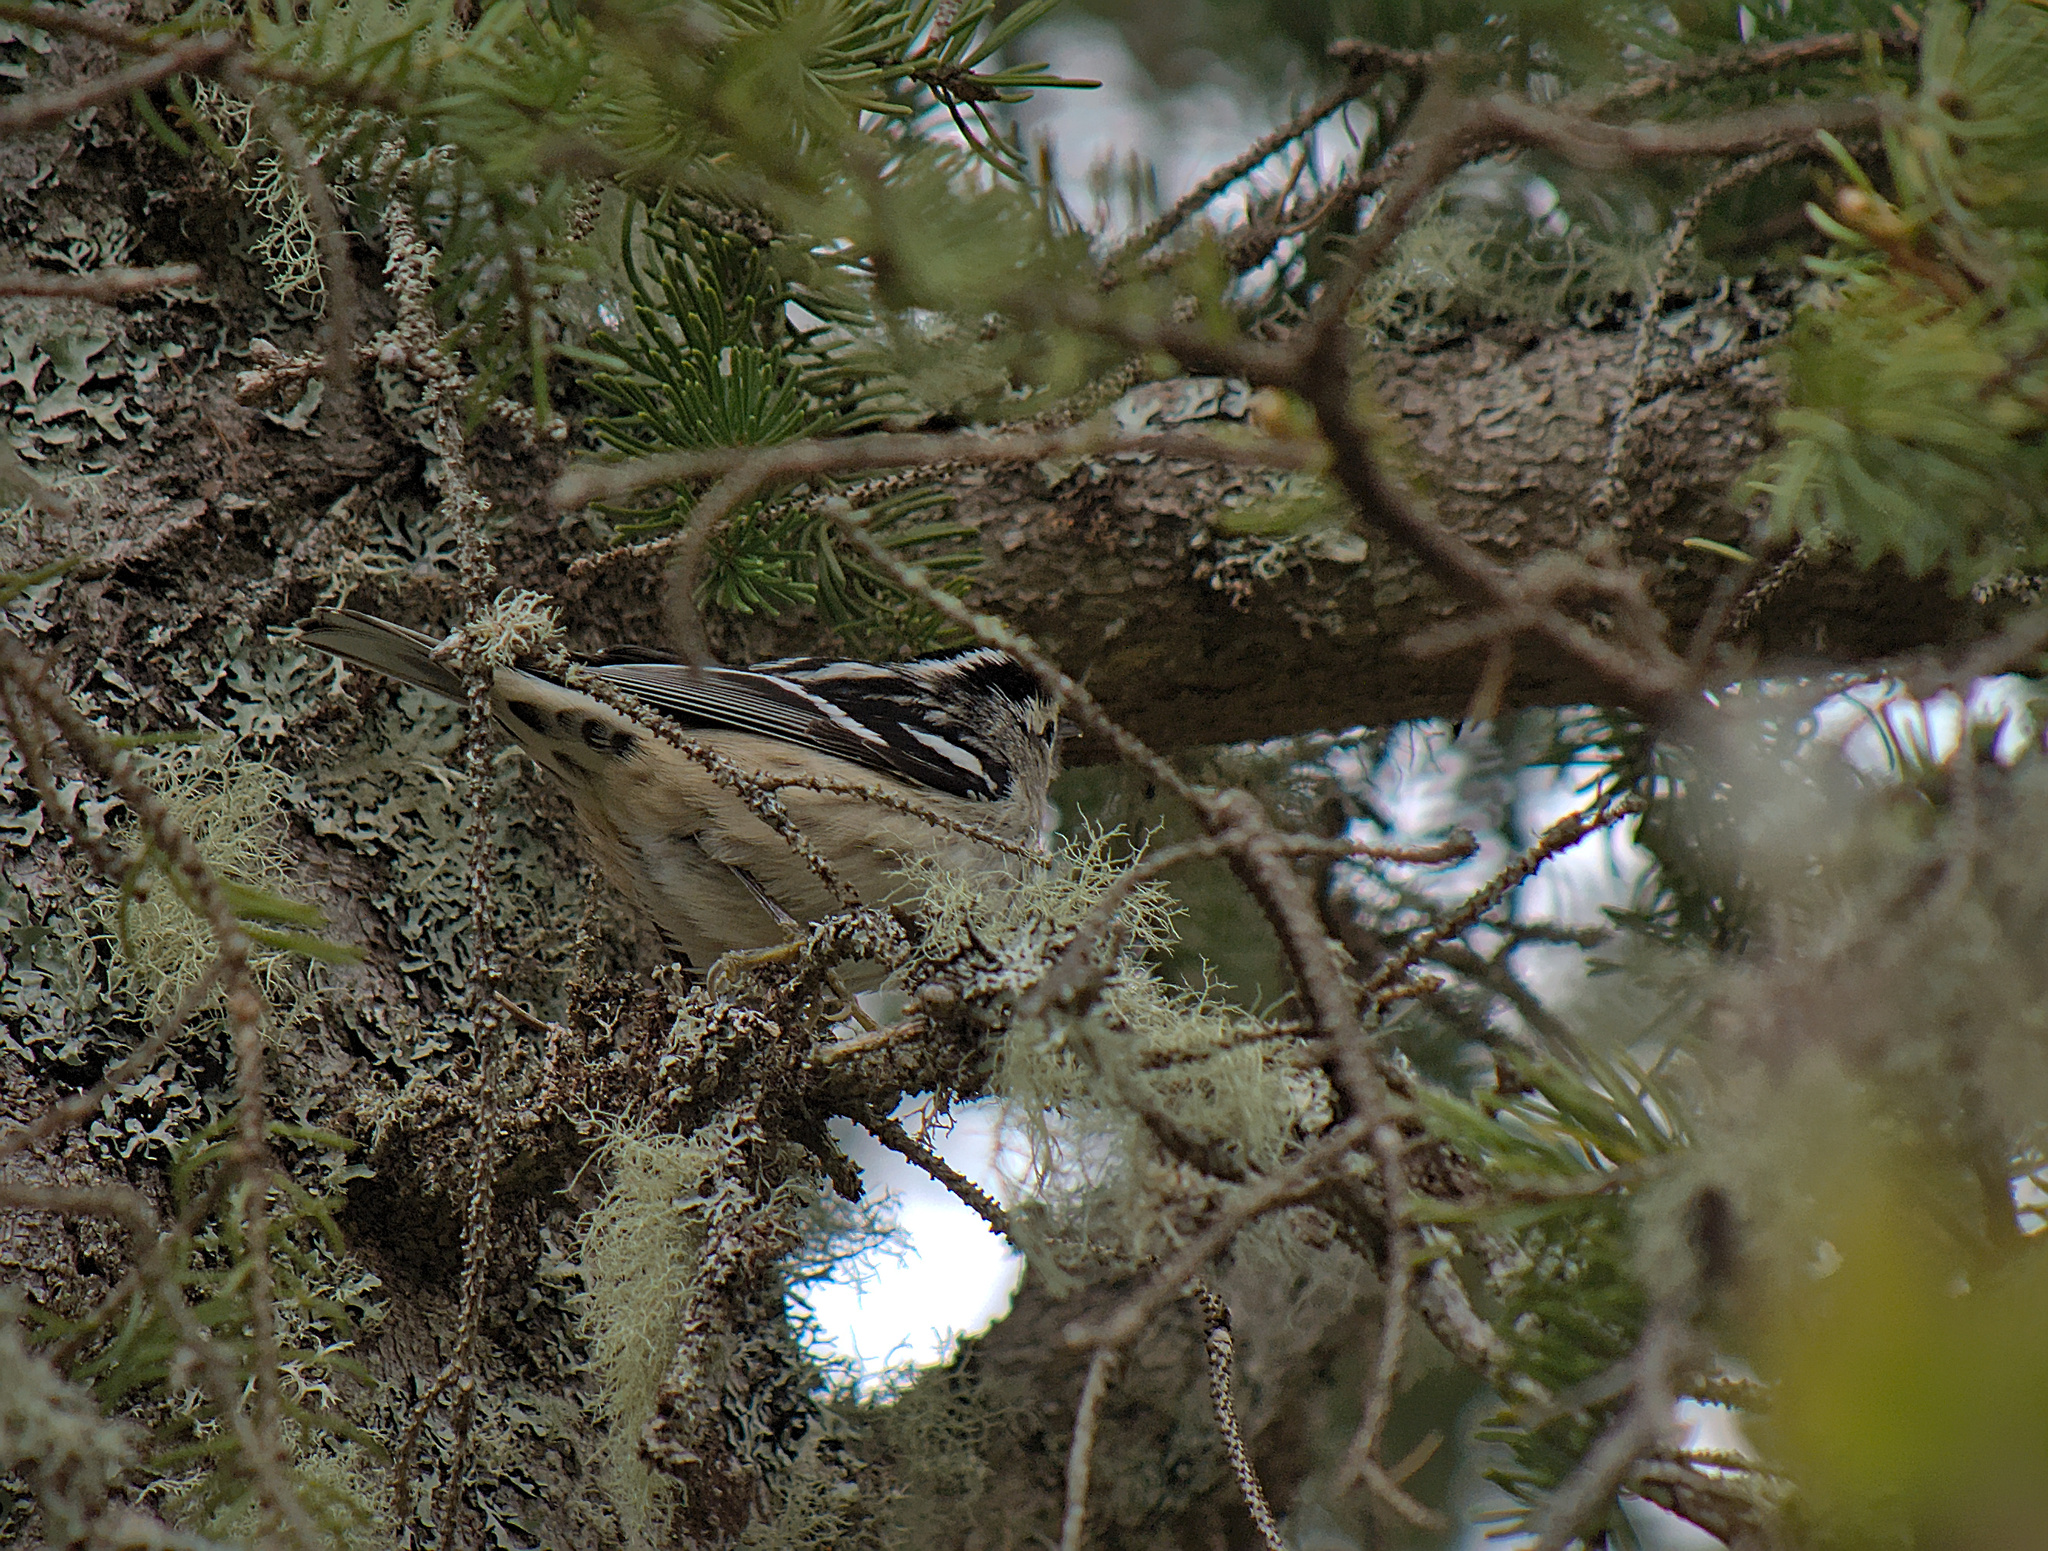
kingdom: Animalia
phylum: Chordata
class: Aves
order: Passeriformes
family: Parulidae
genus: Mniotilta
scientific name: Mniotilta varia
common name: Black-and-white warbler
